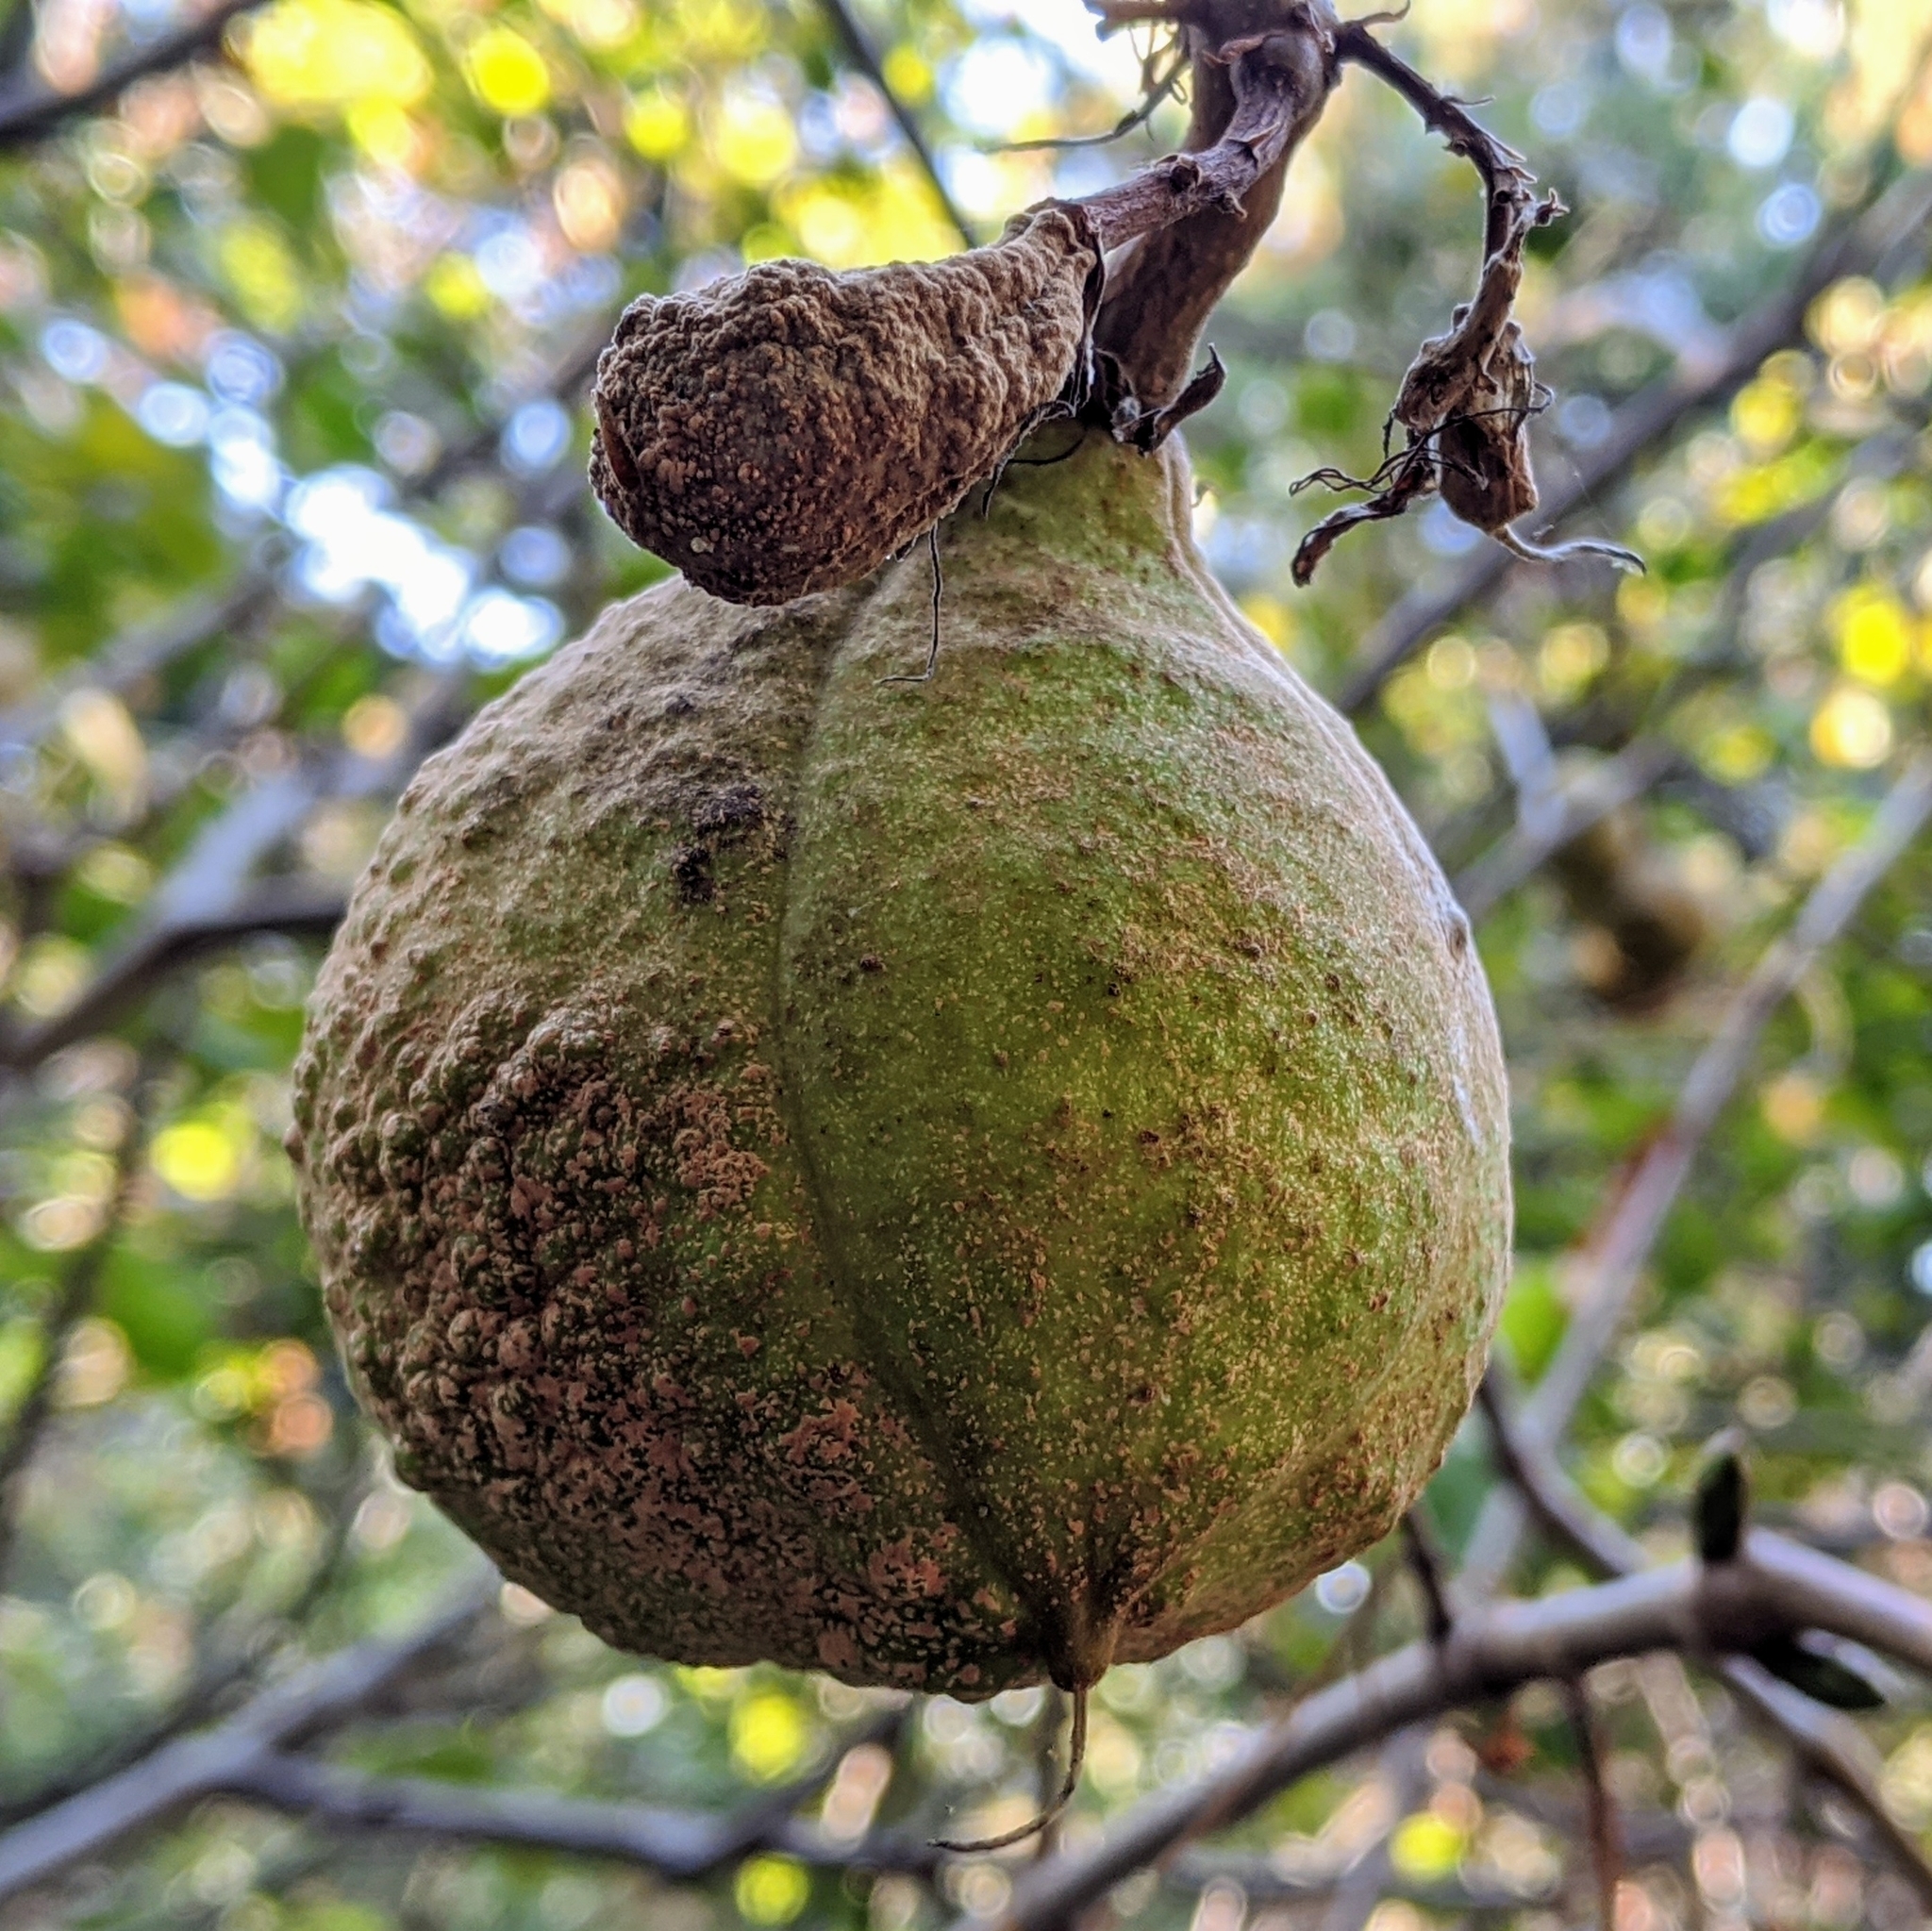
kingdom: Plantae
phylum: Tracheophyta
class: Magnoliopsida
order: Sapindales
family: Sapindaceae
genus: Aesculus
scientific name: Aesculus californica
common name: California buckeye
